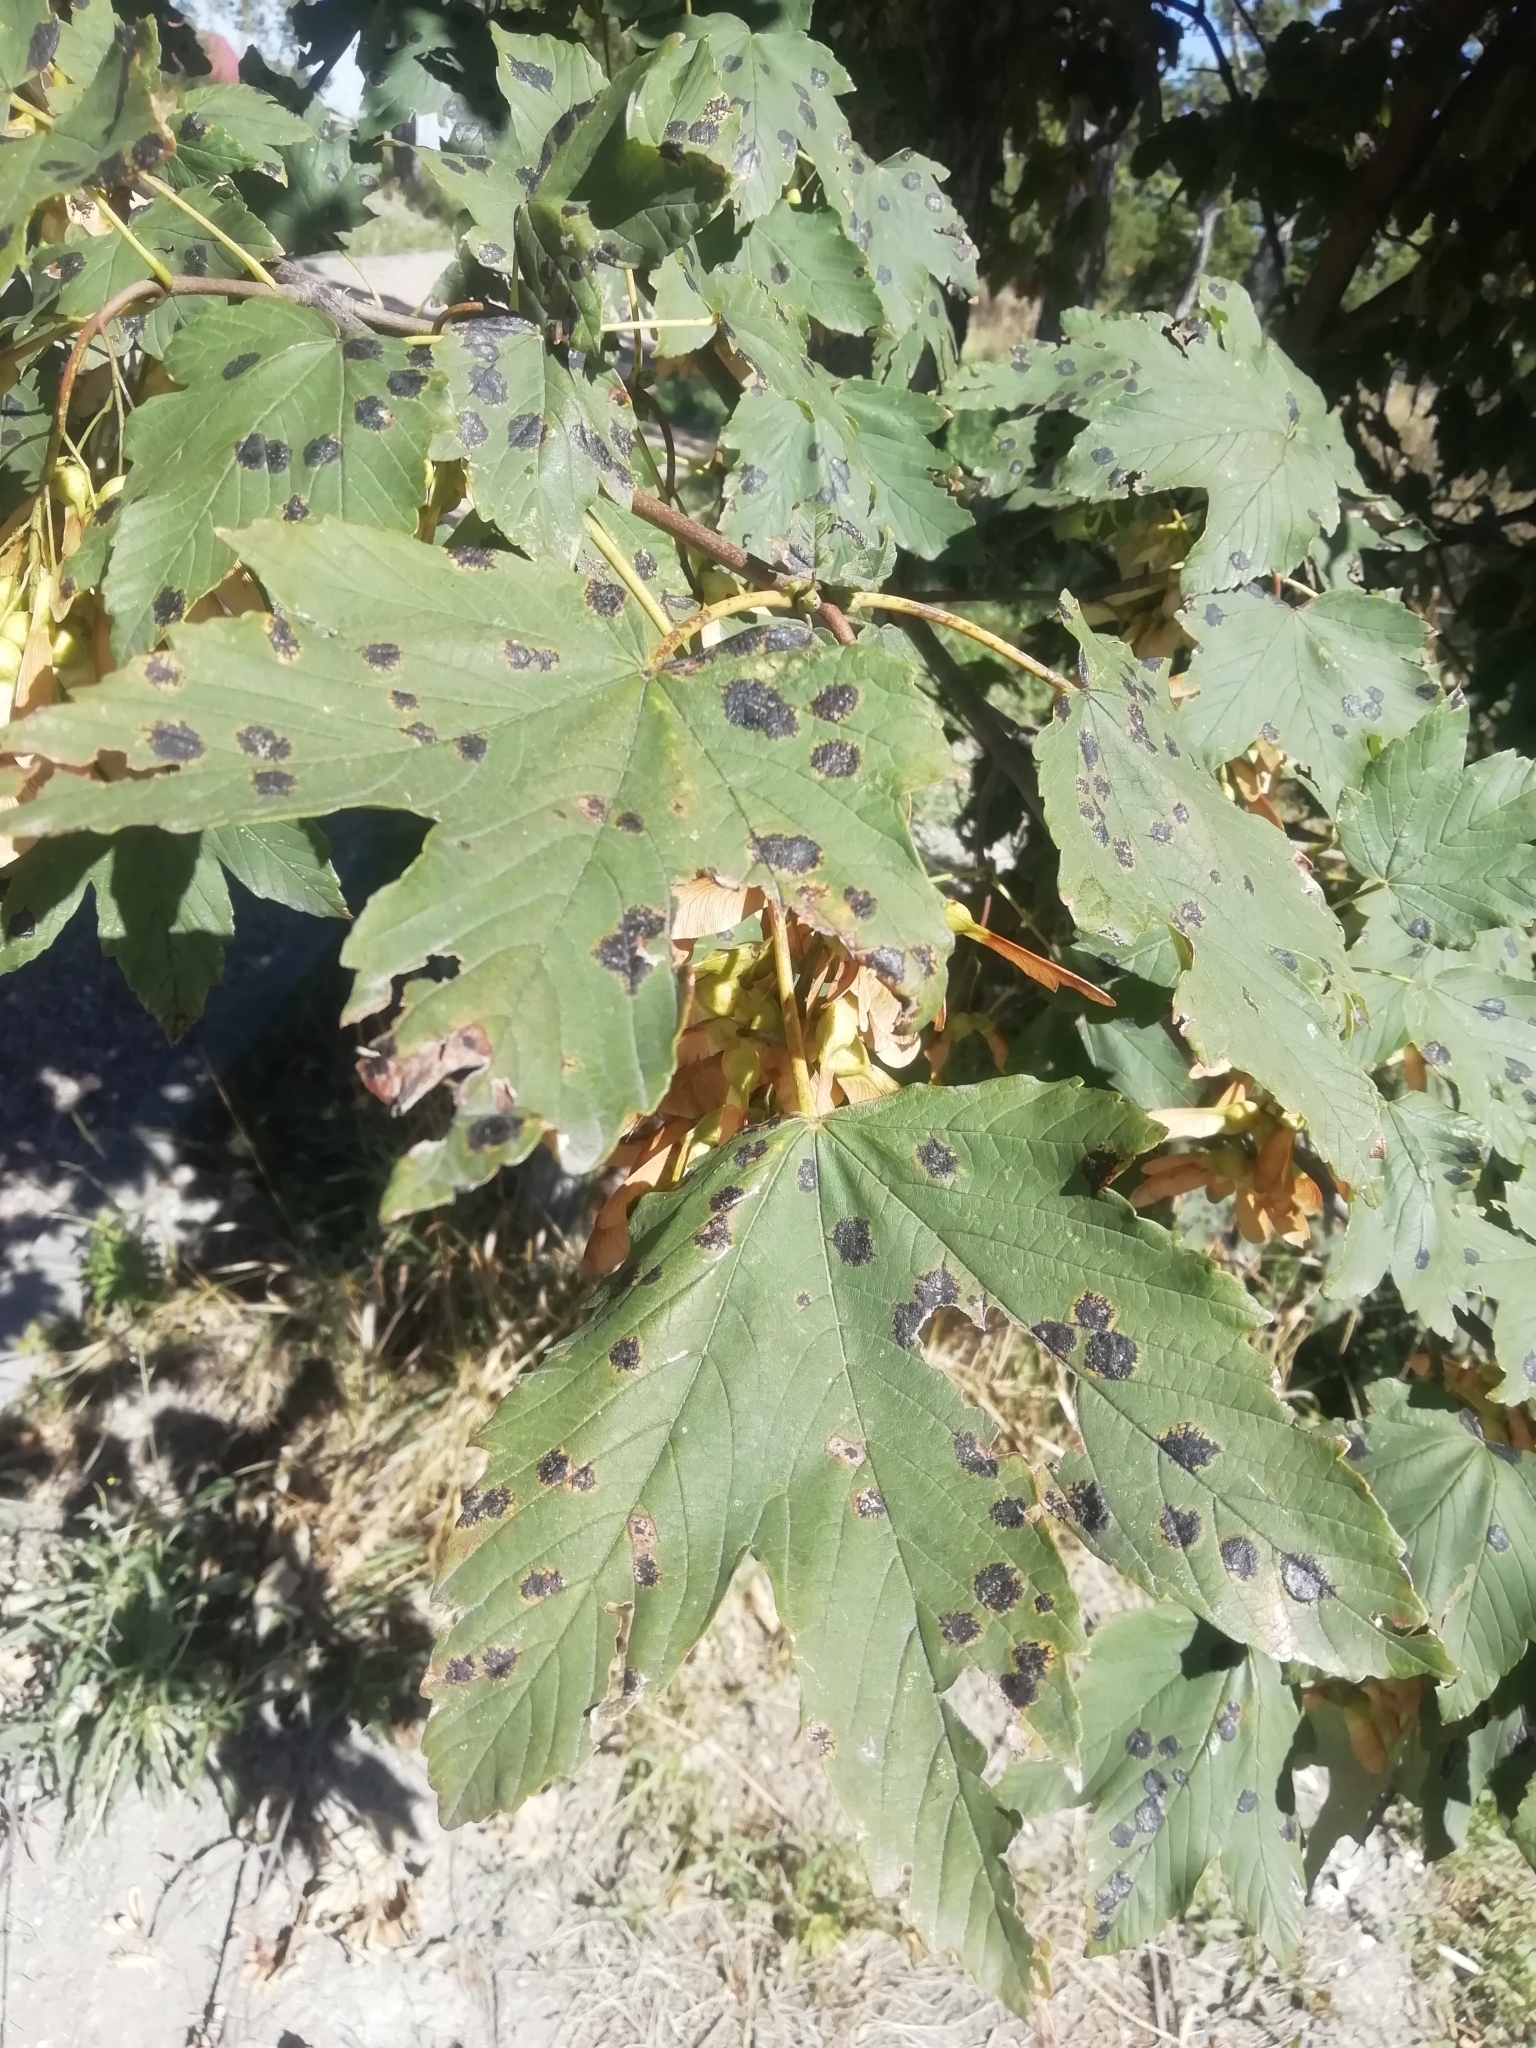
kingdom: Fungi
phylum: Ascomycota
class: Leotiomycetes
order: Rhytismatales
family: Rhytismataceae
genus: Rhytisma
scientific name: Rhytisma acerinum
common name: European tar spot
